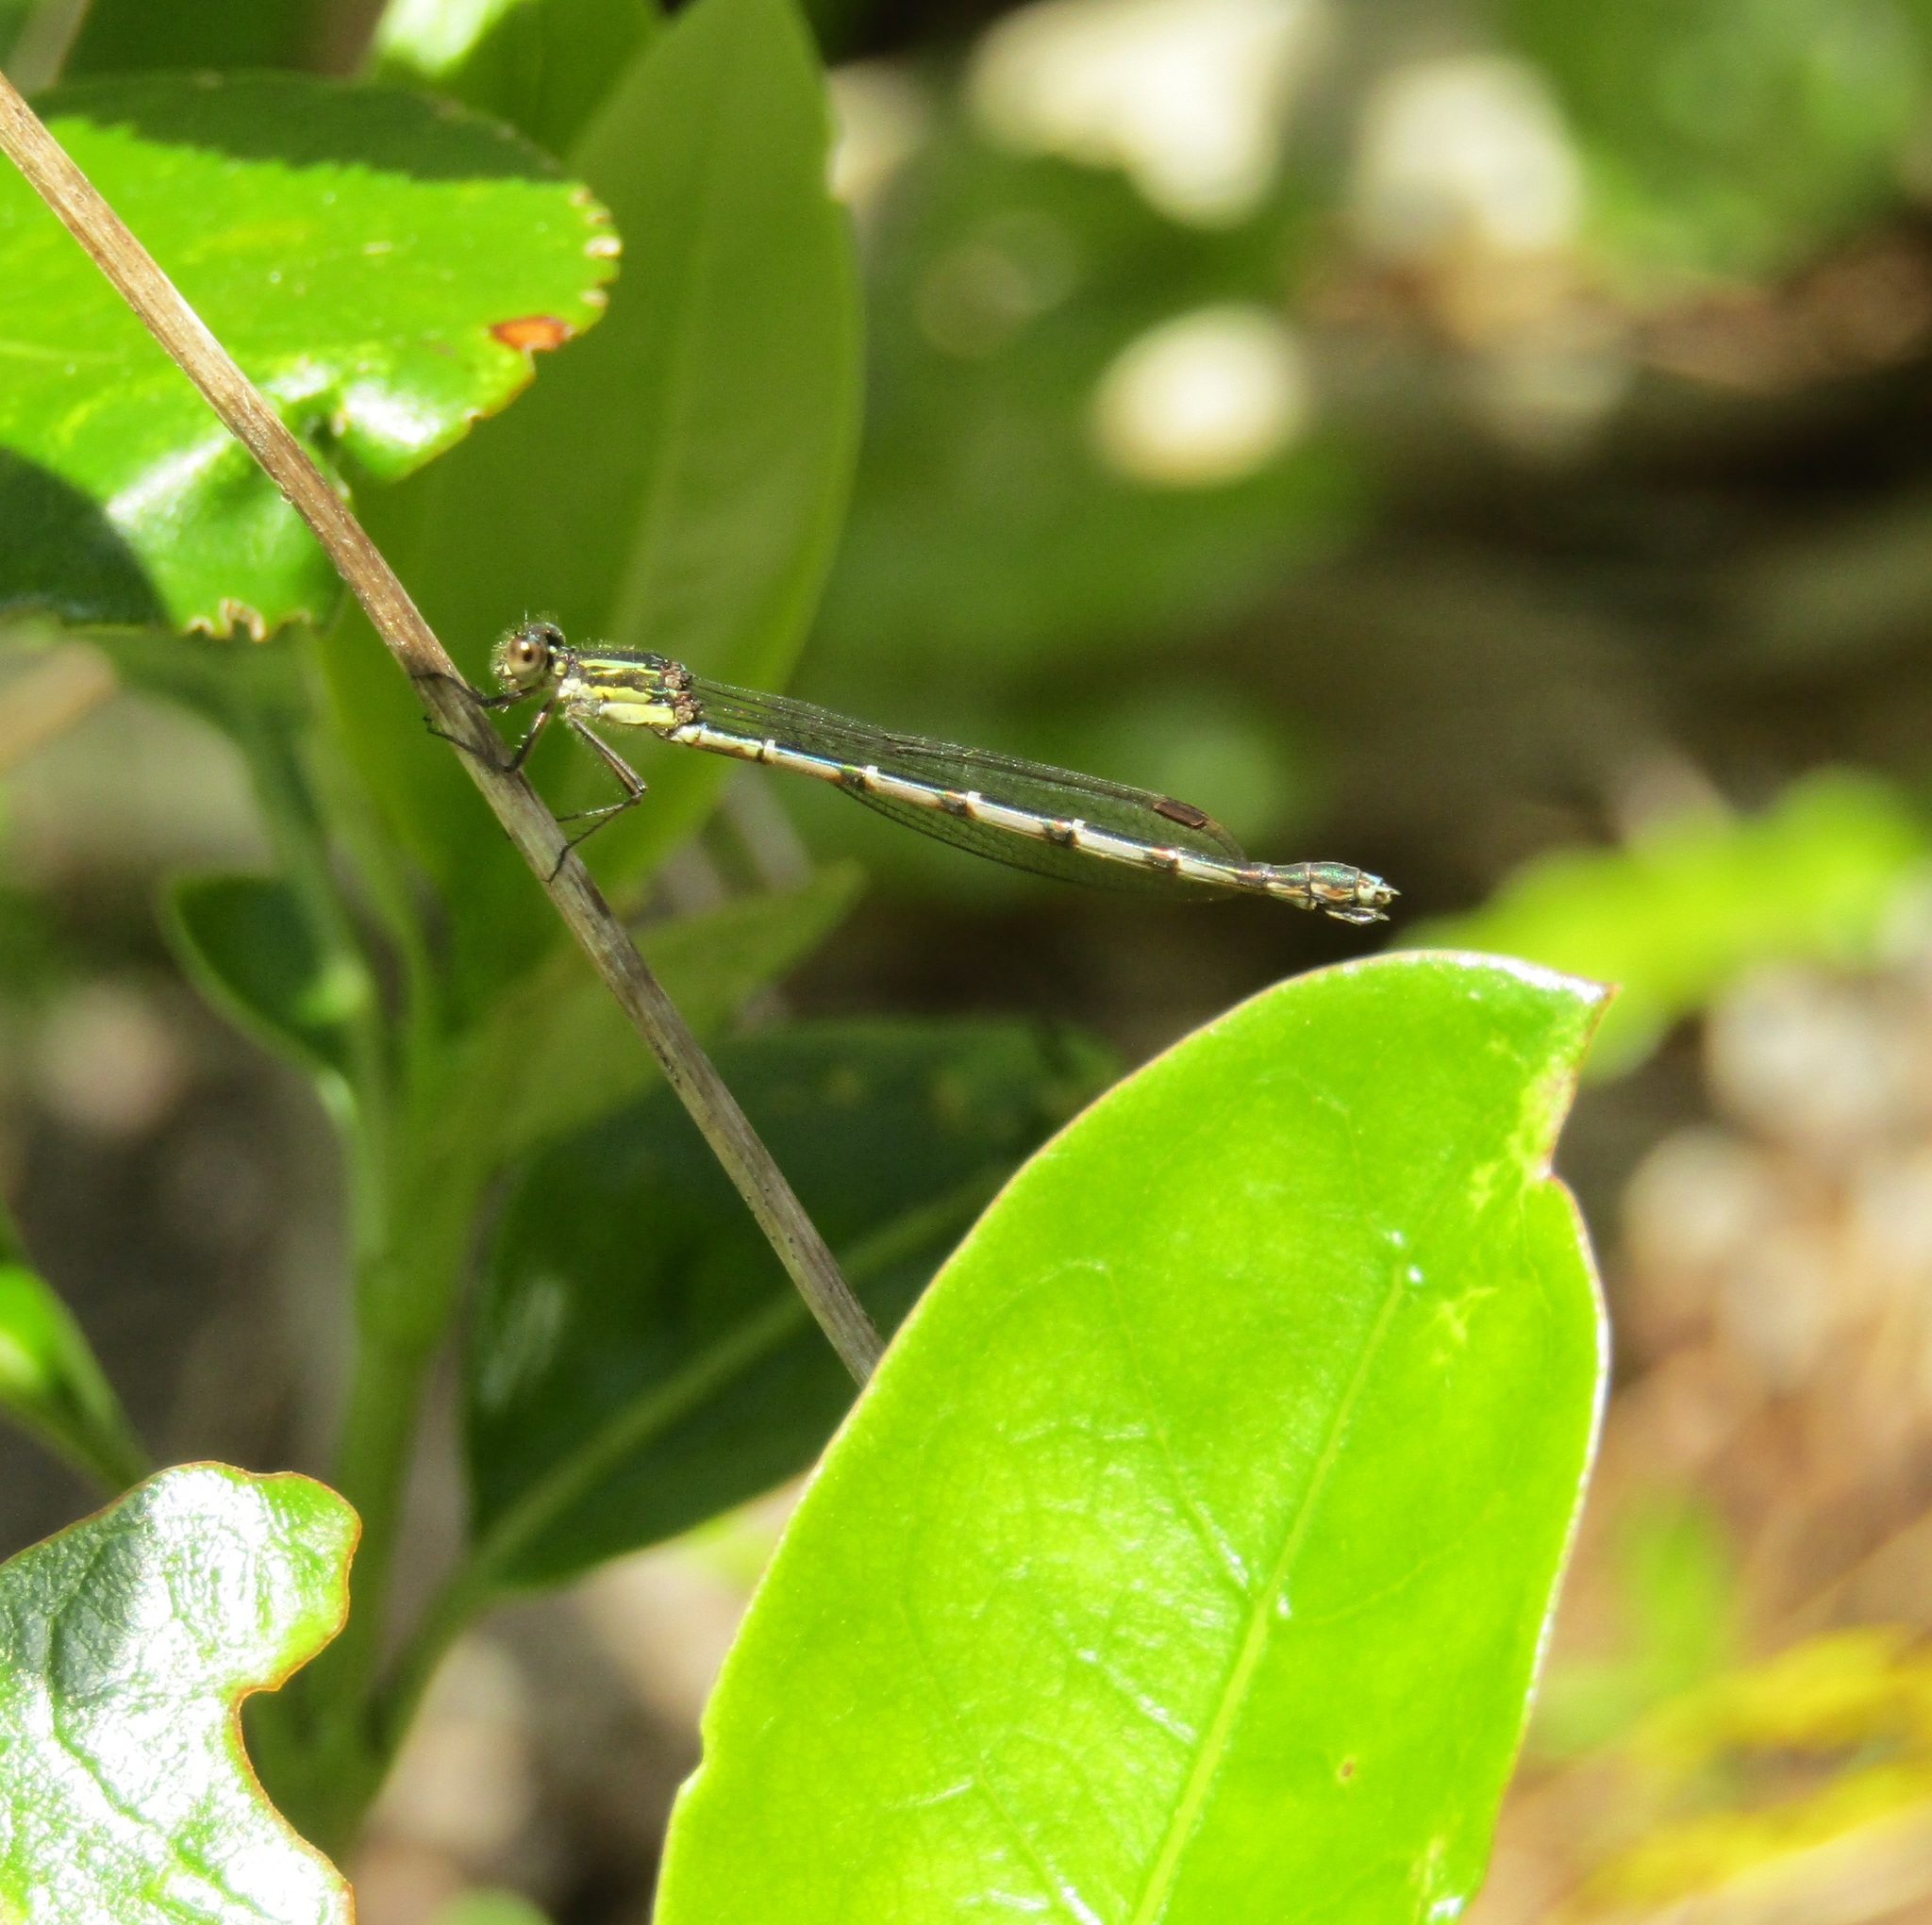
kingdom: Animalia
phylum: Arthropoda
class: Insecta
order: Odonata
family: Lestidae
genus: Austrolestes
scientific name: Austrolestes colensonis
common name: Blue damselfly
